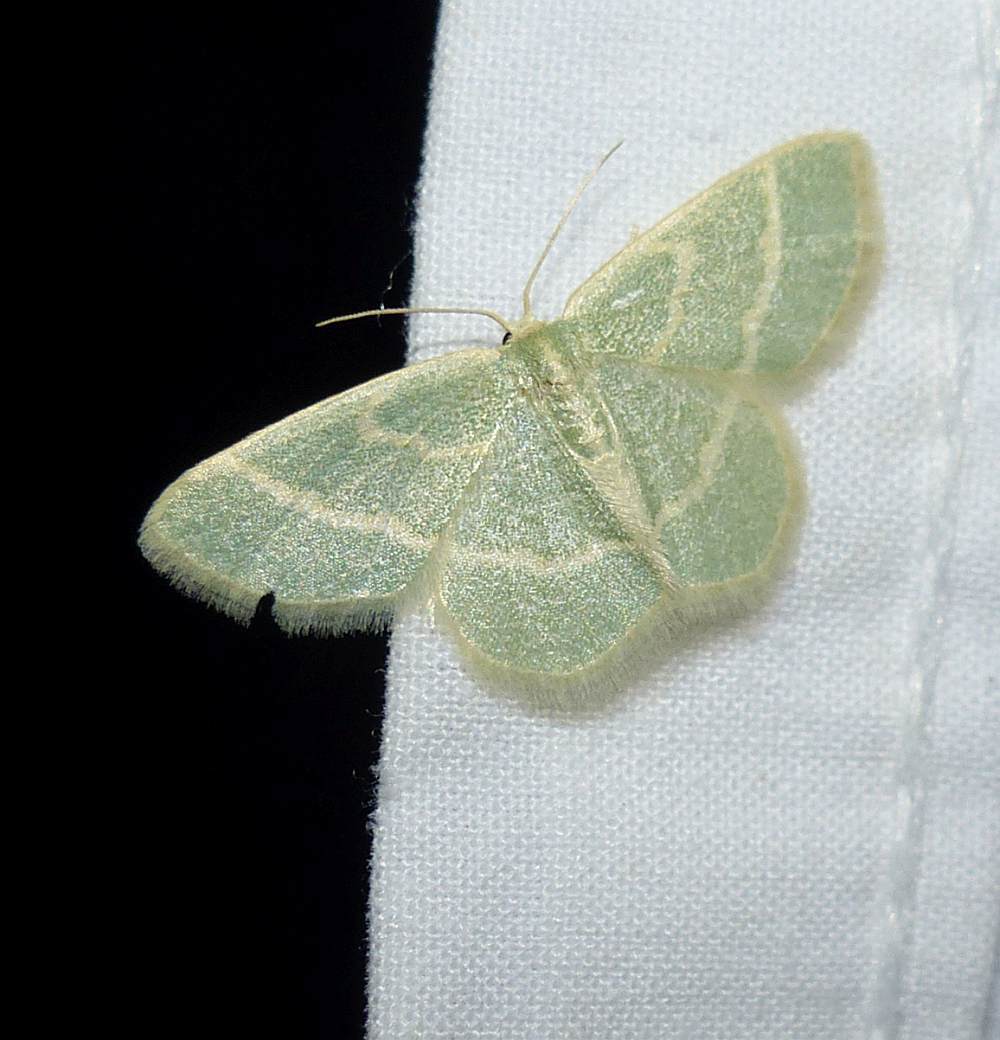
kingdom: Animalia
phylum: Arthropoda
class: Insecta
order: Lepidoptera
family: Geometridae
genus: Chlorochlamys
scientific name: Chlorochlamys chloroleucaria
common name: Blackberry looper
